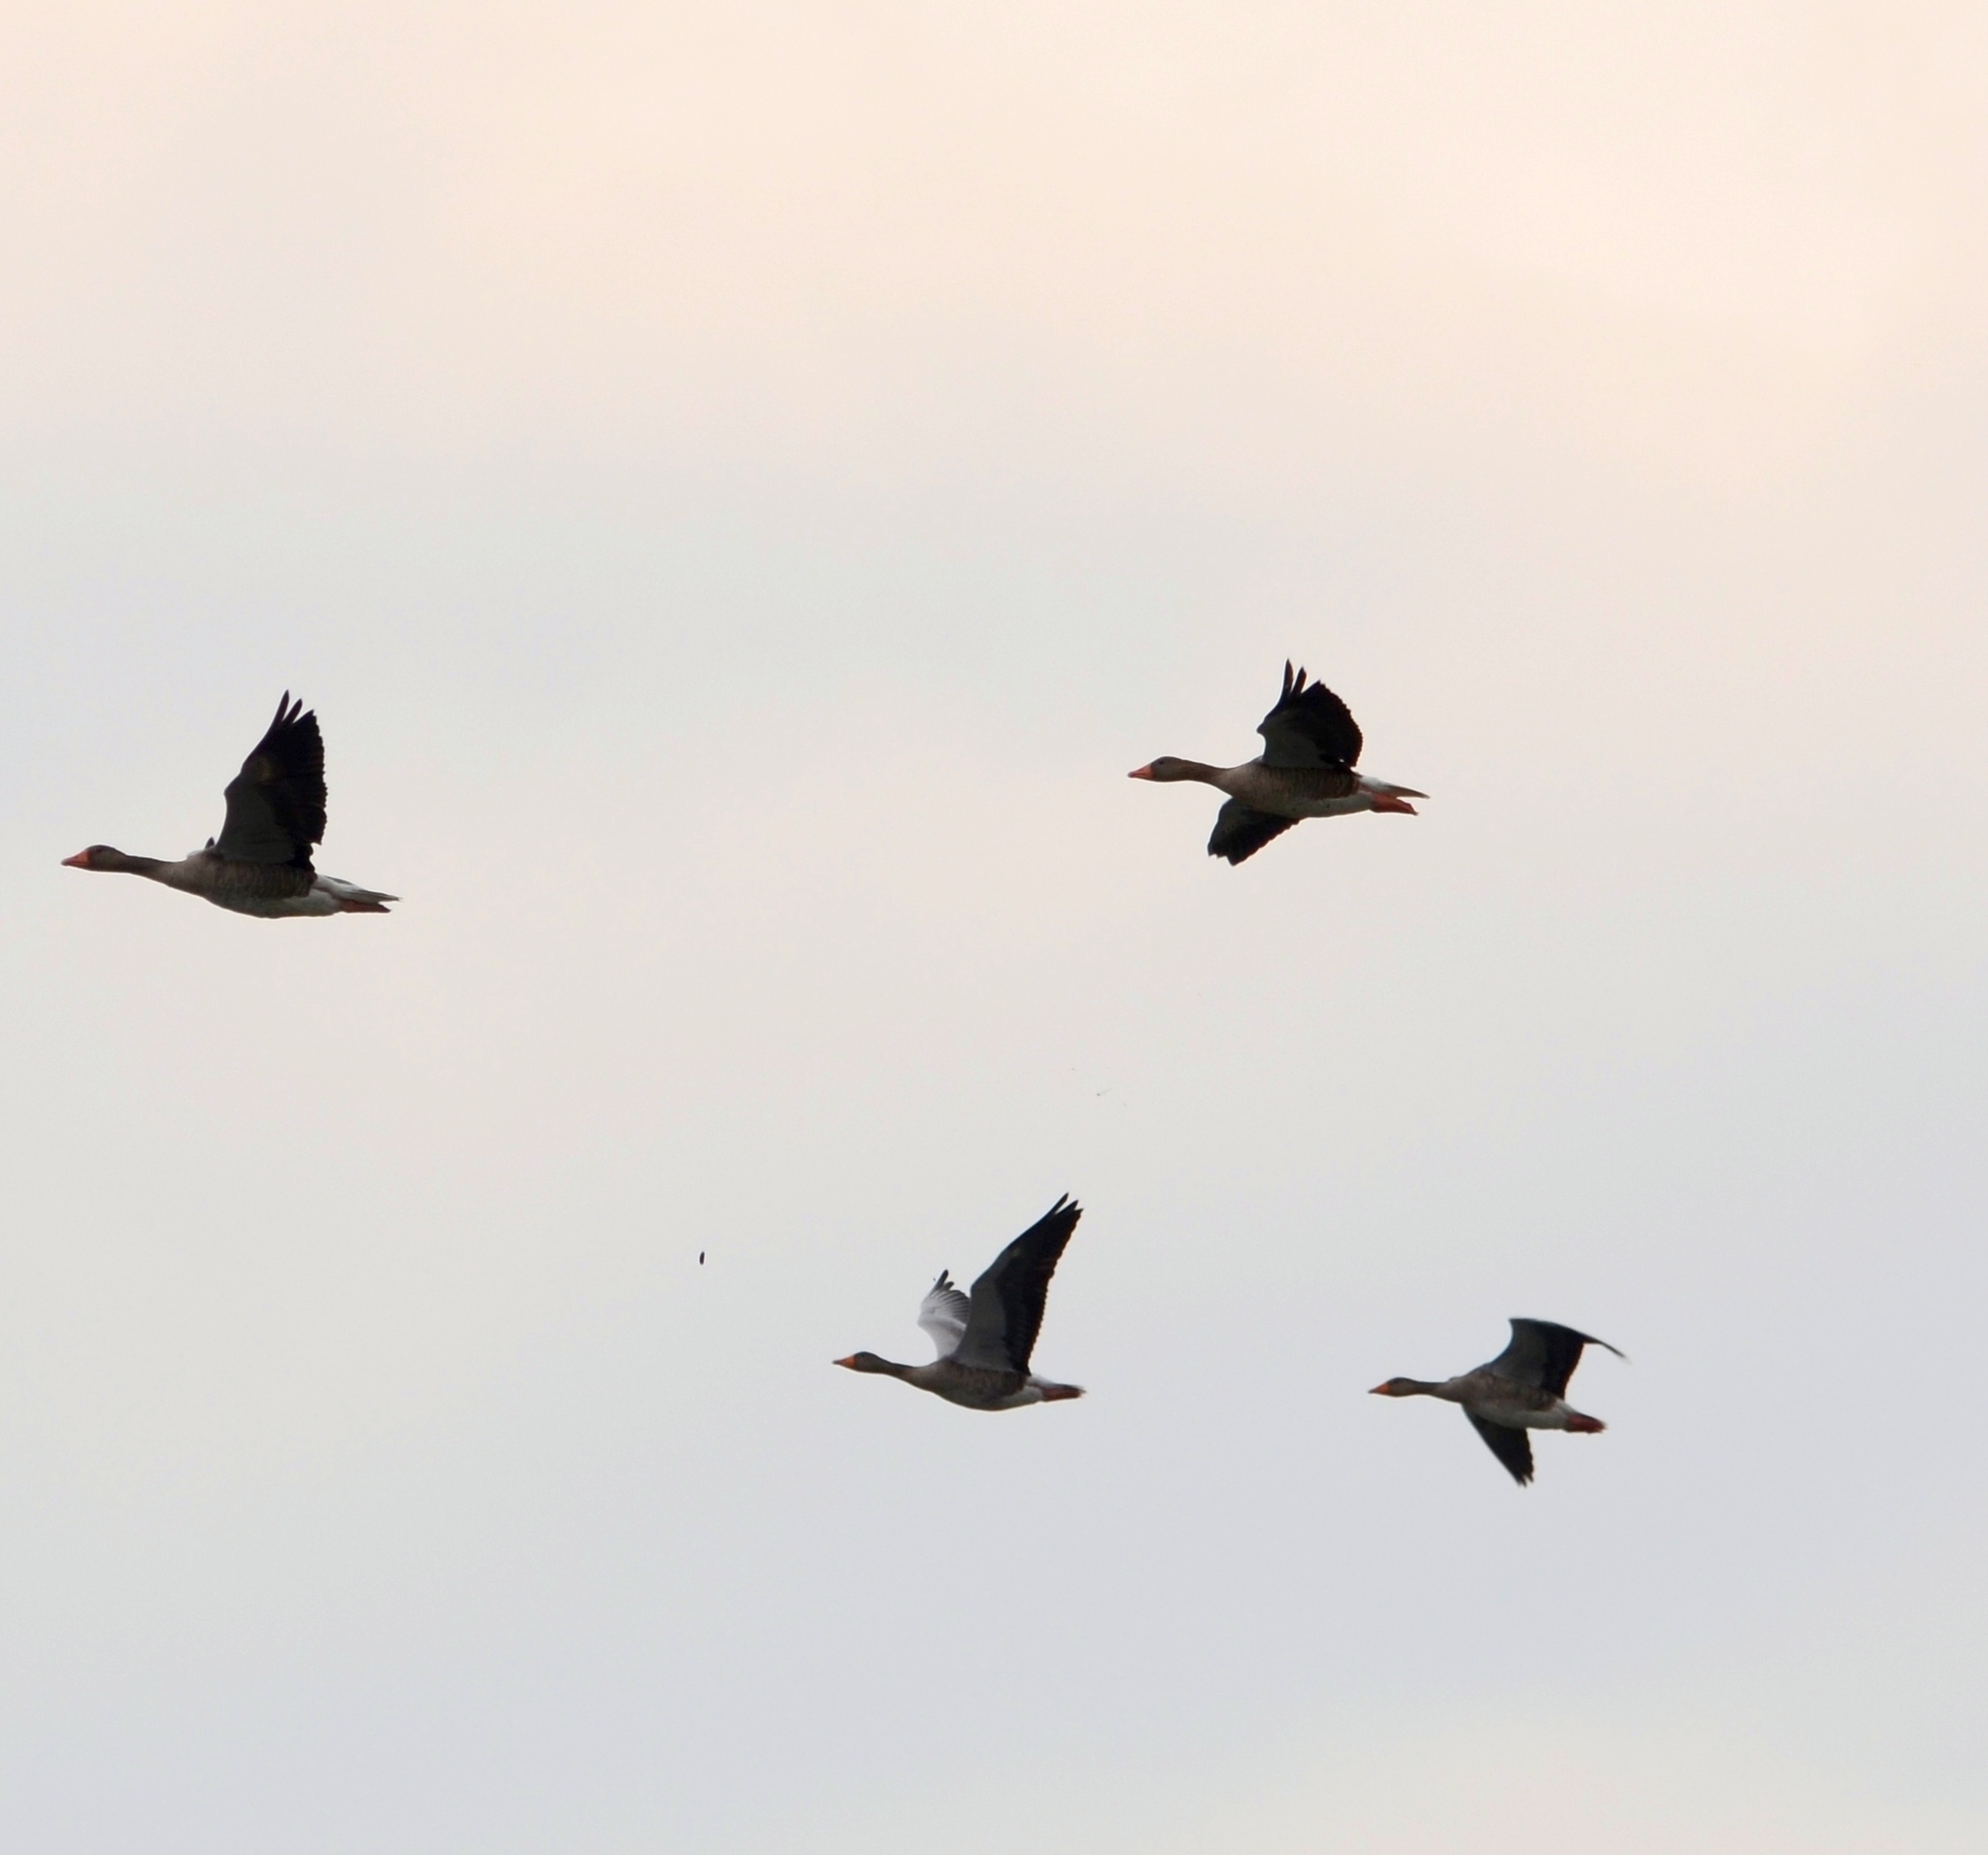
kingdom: Animalia
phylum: Chordata
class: Aves
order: Anseriformes
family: Anatidae
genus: Anser
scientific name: Anser anser
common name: Greylag goose
